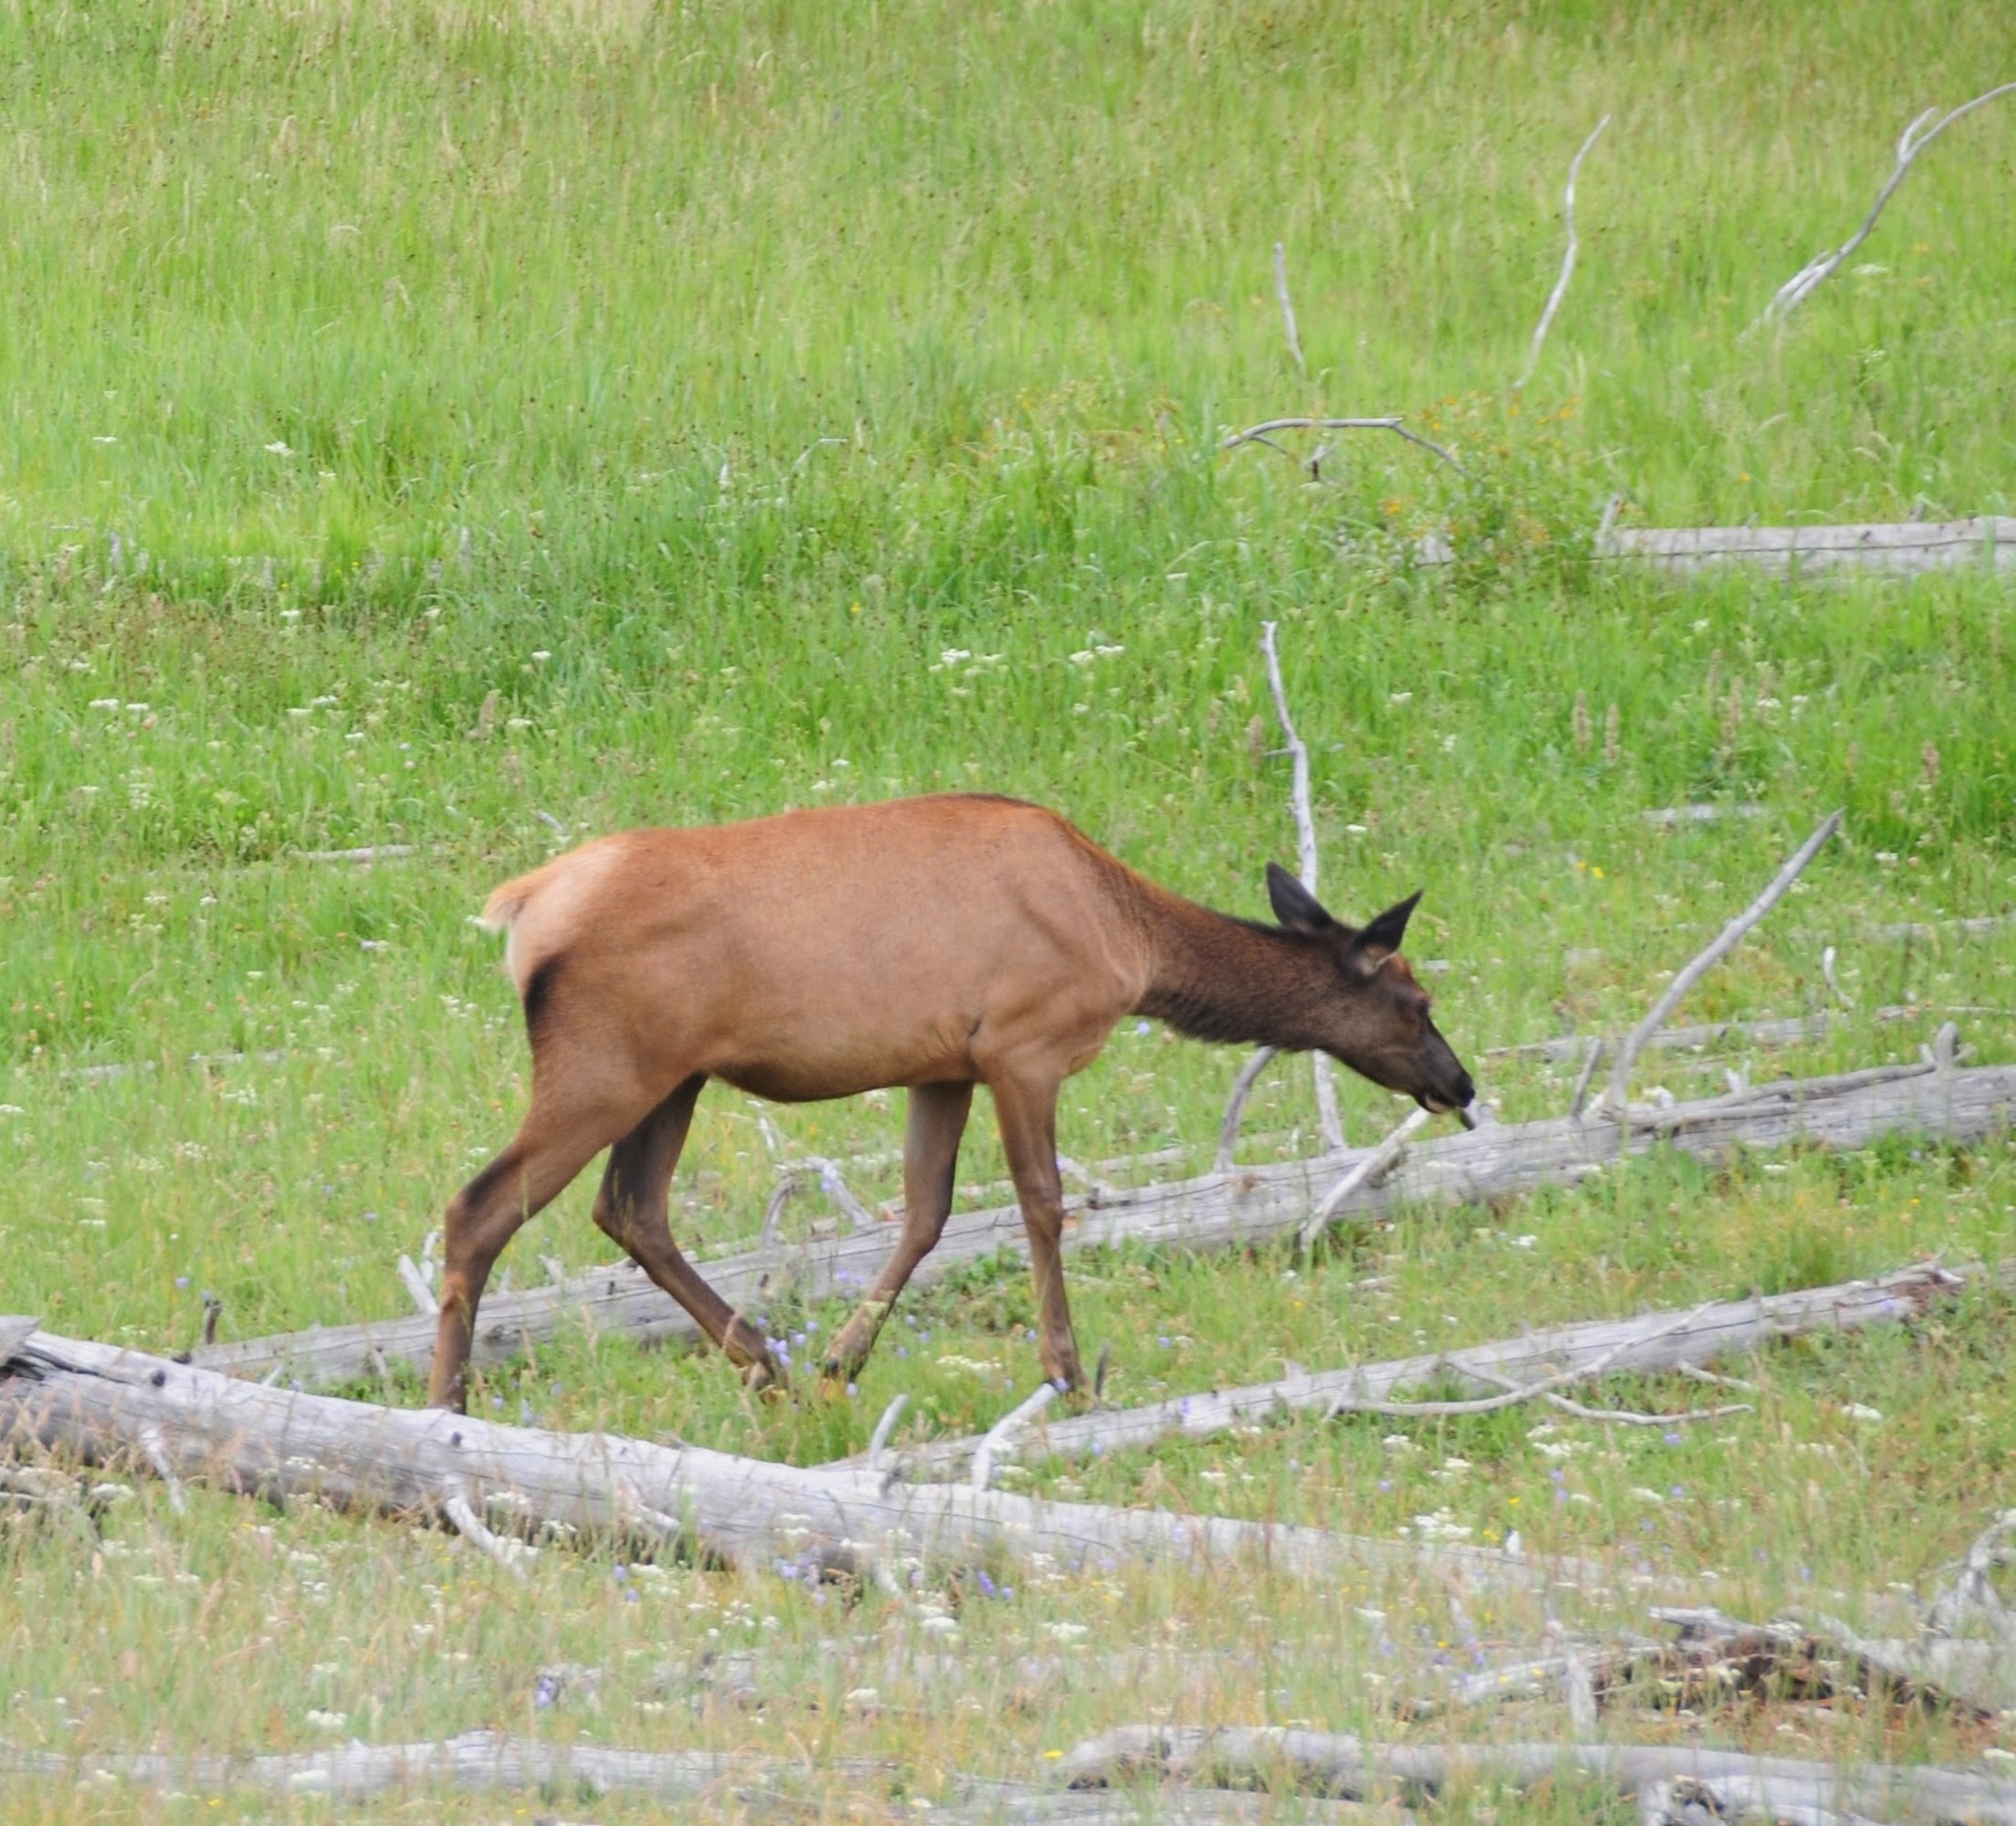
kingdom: Animalia
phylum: Chordata
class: Mammalia
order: Artiodactyla
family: Cervidae
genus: Cervus
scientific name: Cervus elaphus
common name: Red deer
